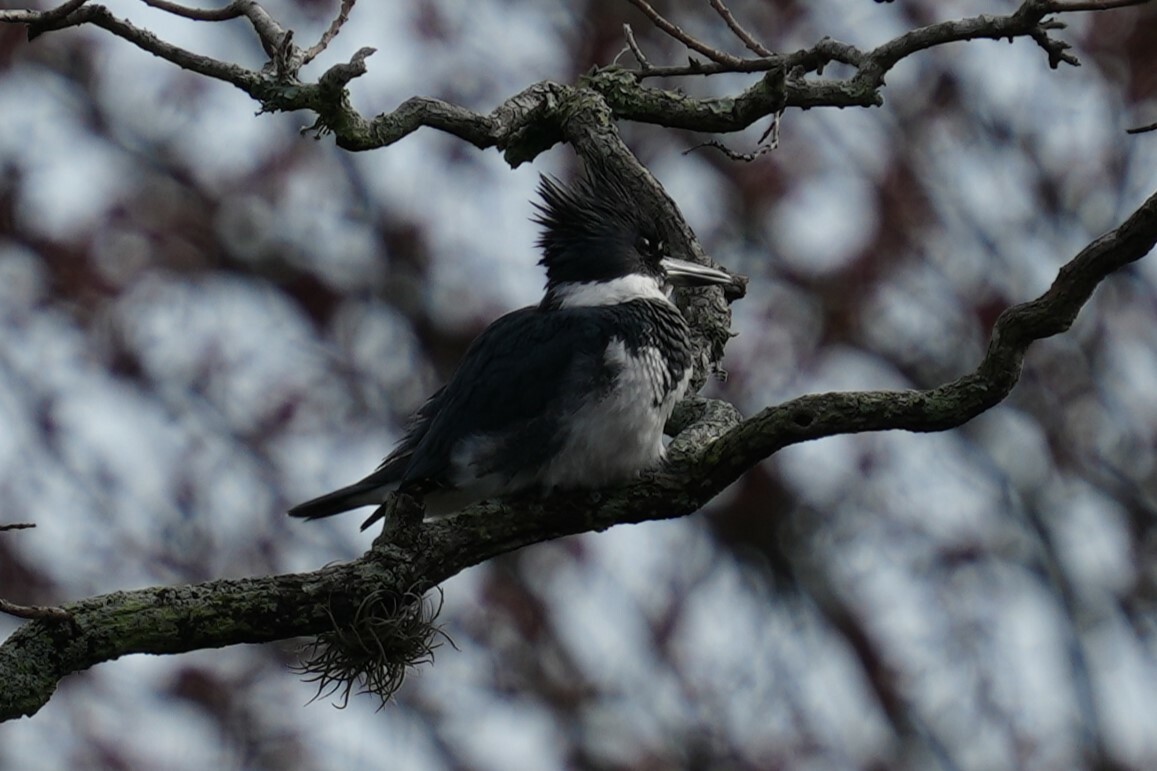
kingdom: Animalia
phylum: Chordata
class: Aves
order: Coraciiformes
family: Alcedinidae
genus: Megaceryle
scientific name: Megaceryle alcyon
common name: Belted kingfisher
